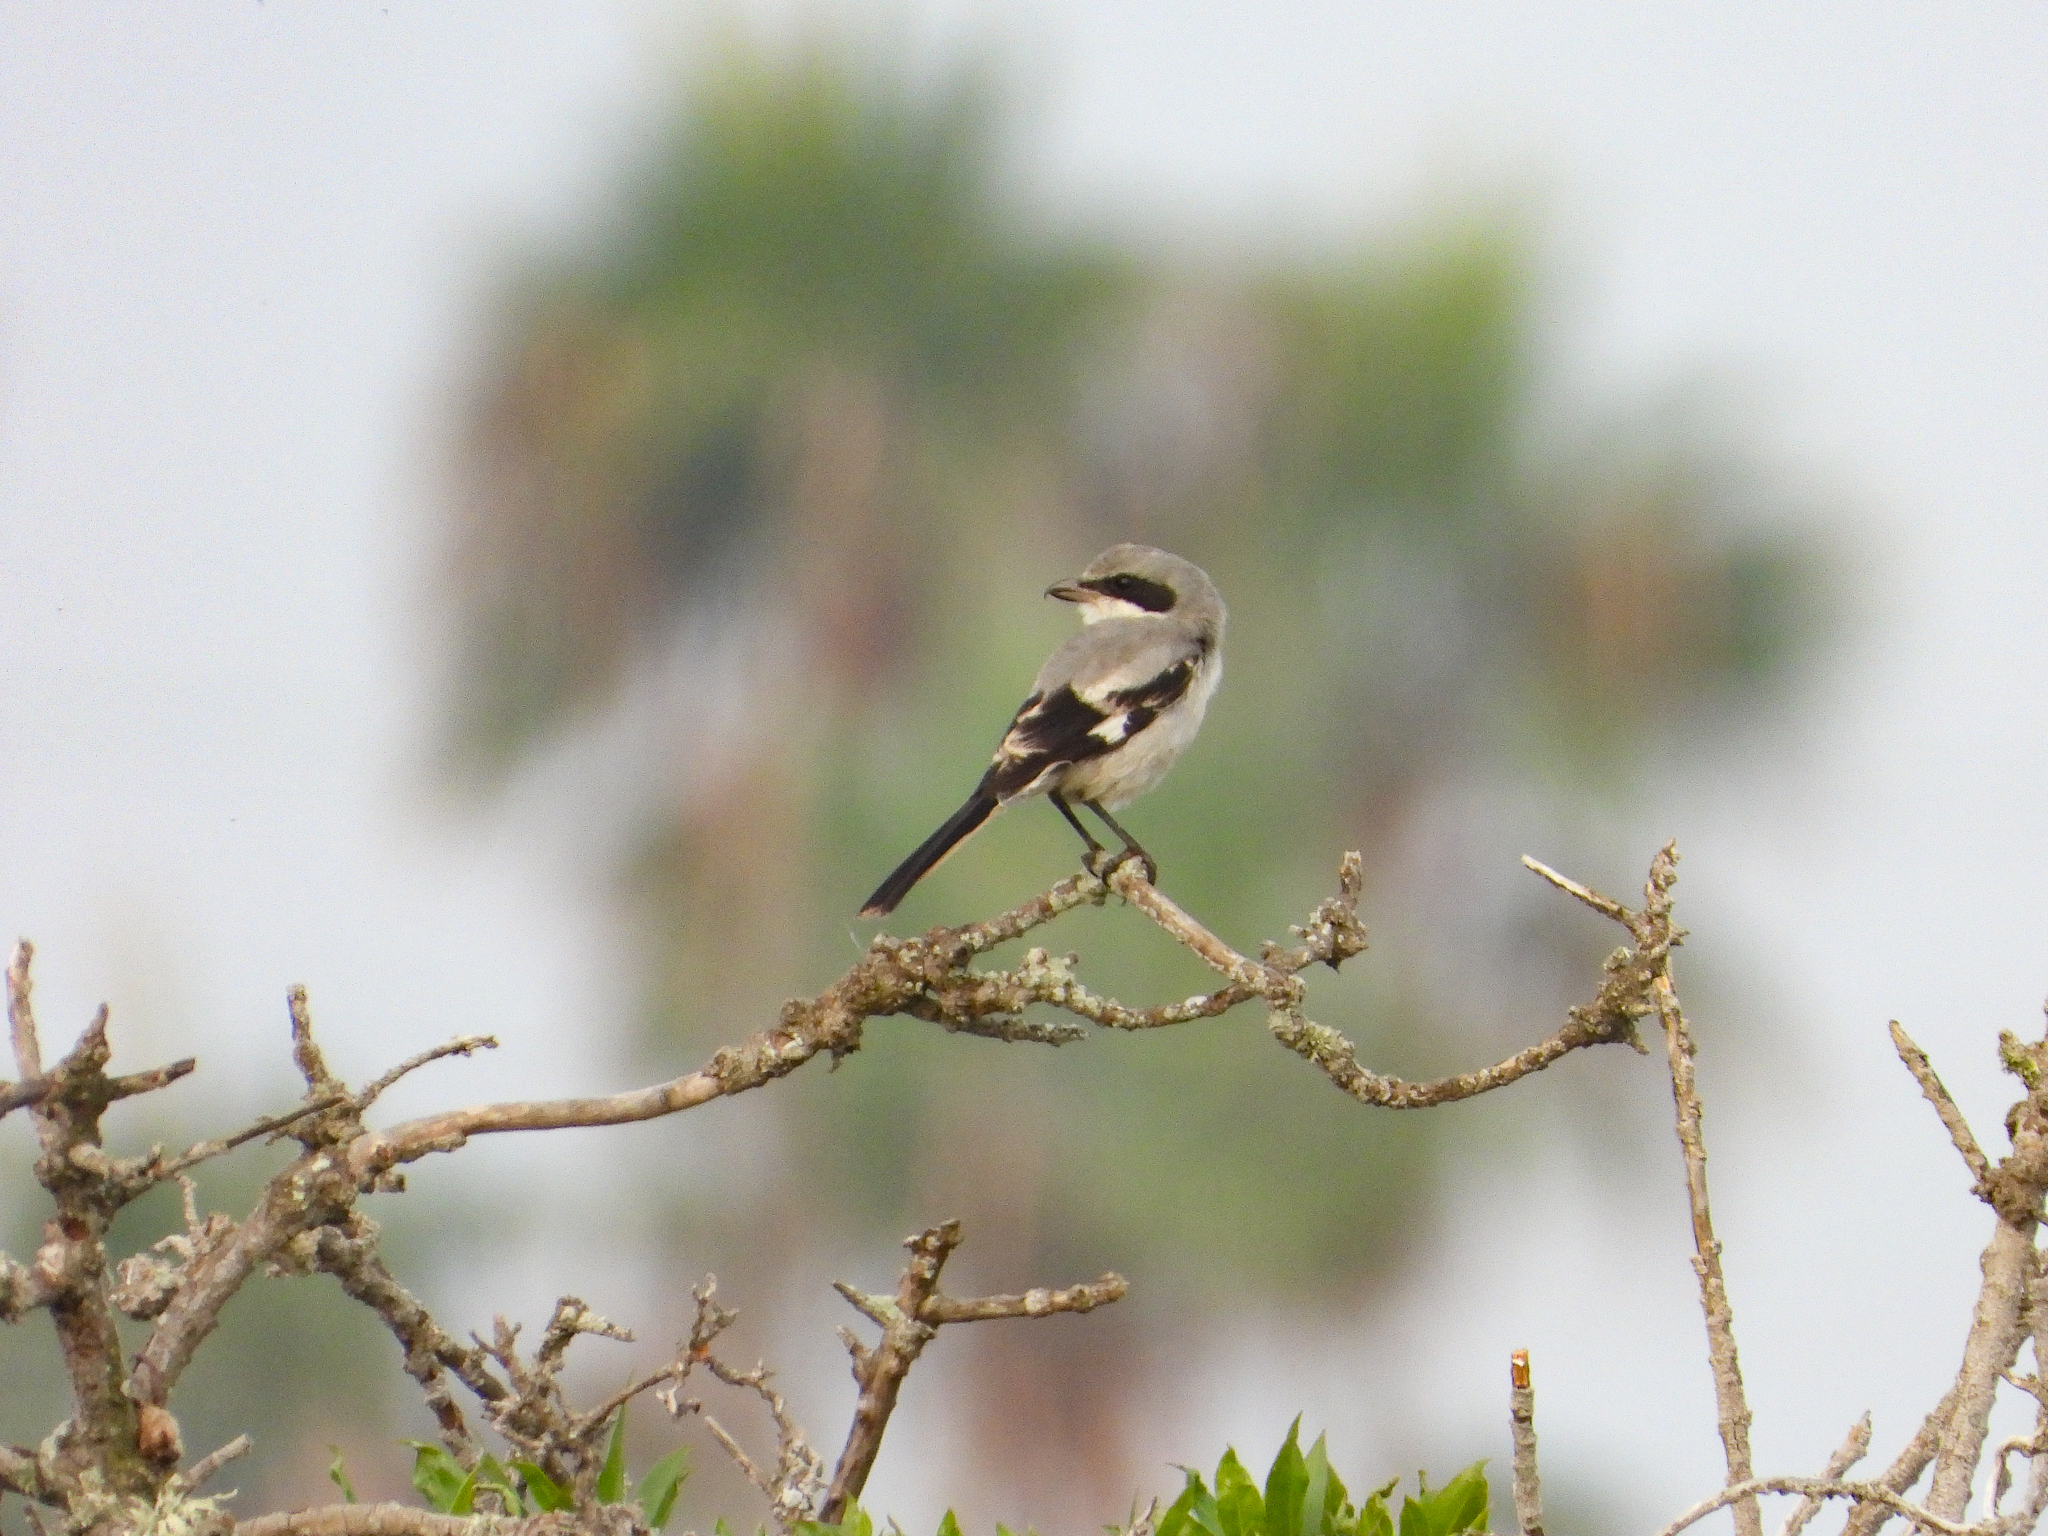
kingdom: Animalia
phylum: Chordata
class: Aves
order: Passeriformes
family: Laniidae
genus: Lanius
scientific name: Lanius ludovicianus
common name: Loggerhead shrike
